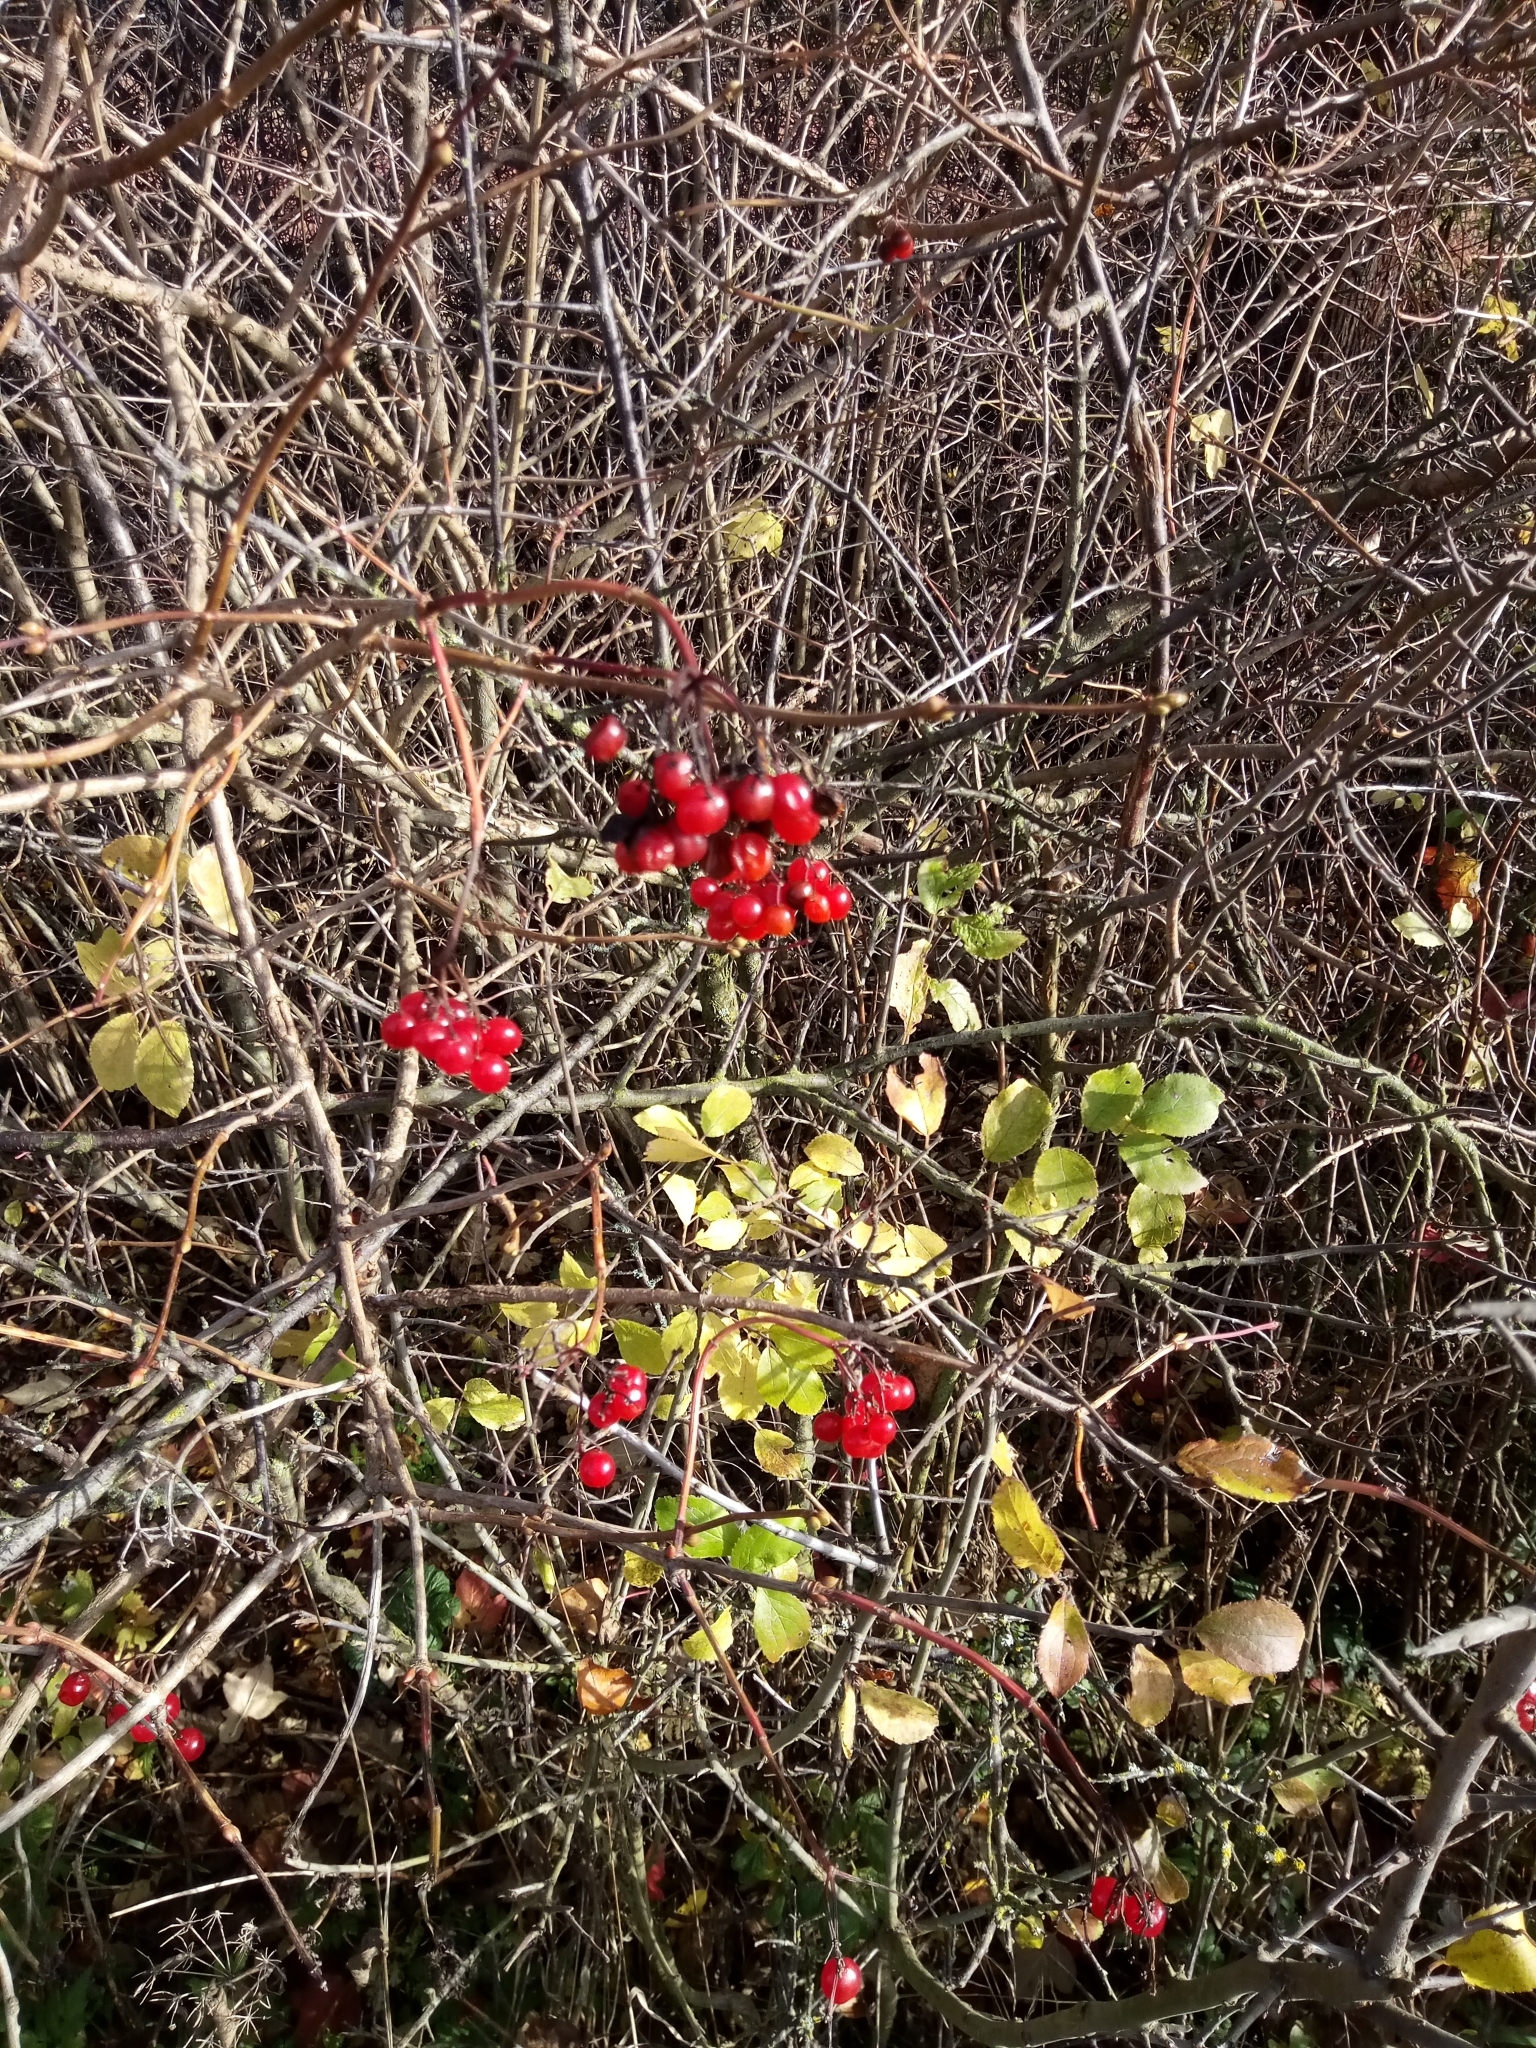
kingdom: Plantae
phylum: Tracheophyta
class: Magnoliopsida
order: Dipsacales
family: Viburnaceae
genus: Viburnum
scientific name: Viburnum opulus
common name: Guelder-rose
